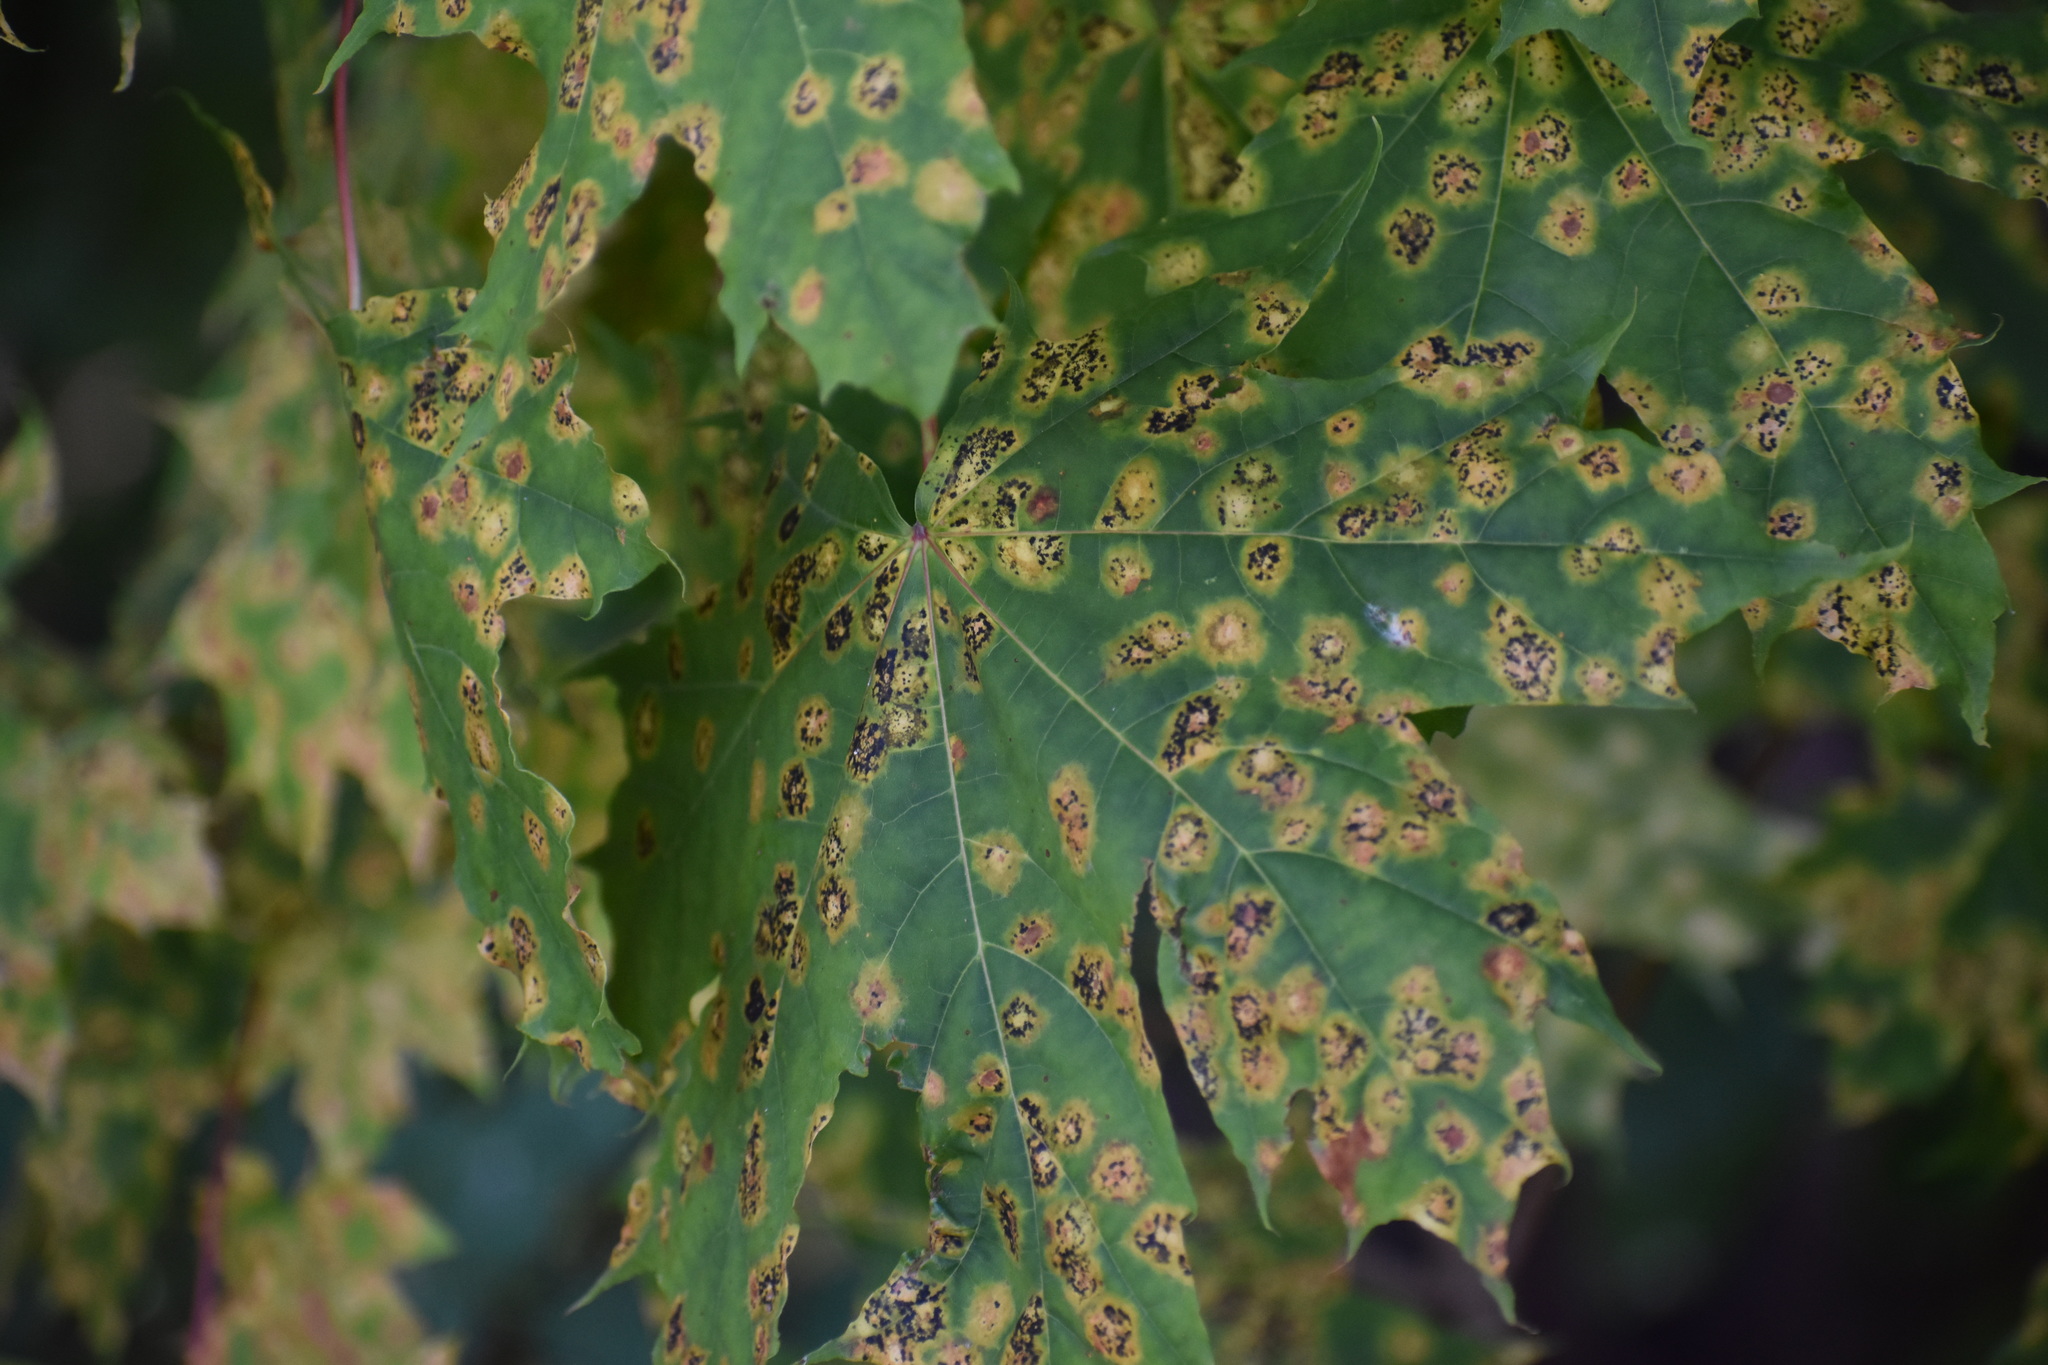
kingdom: Fungi
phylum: Ascomycota
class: Leotiomycetes
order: Rhytismatales
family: Rhytismataceae
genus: Rhytisma
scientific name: Rhytisma acerinum
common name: European tar spot
